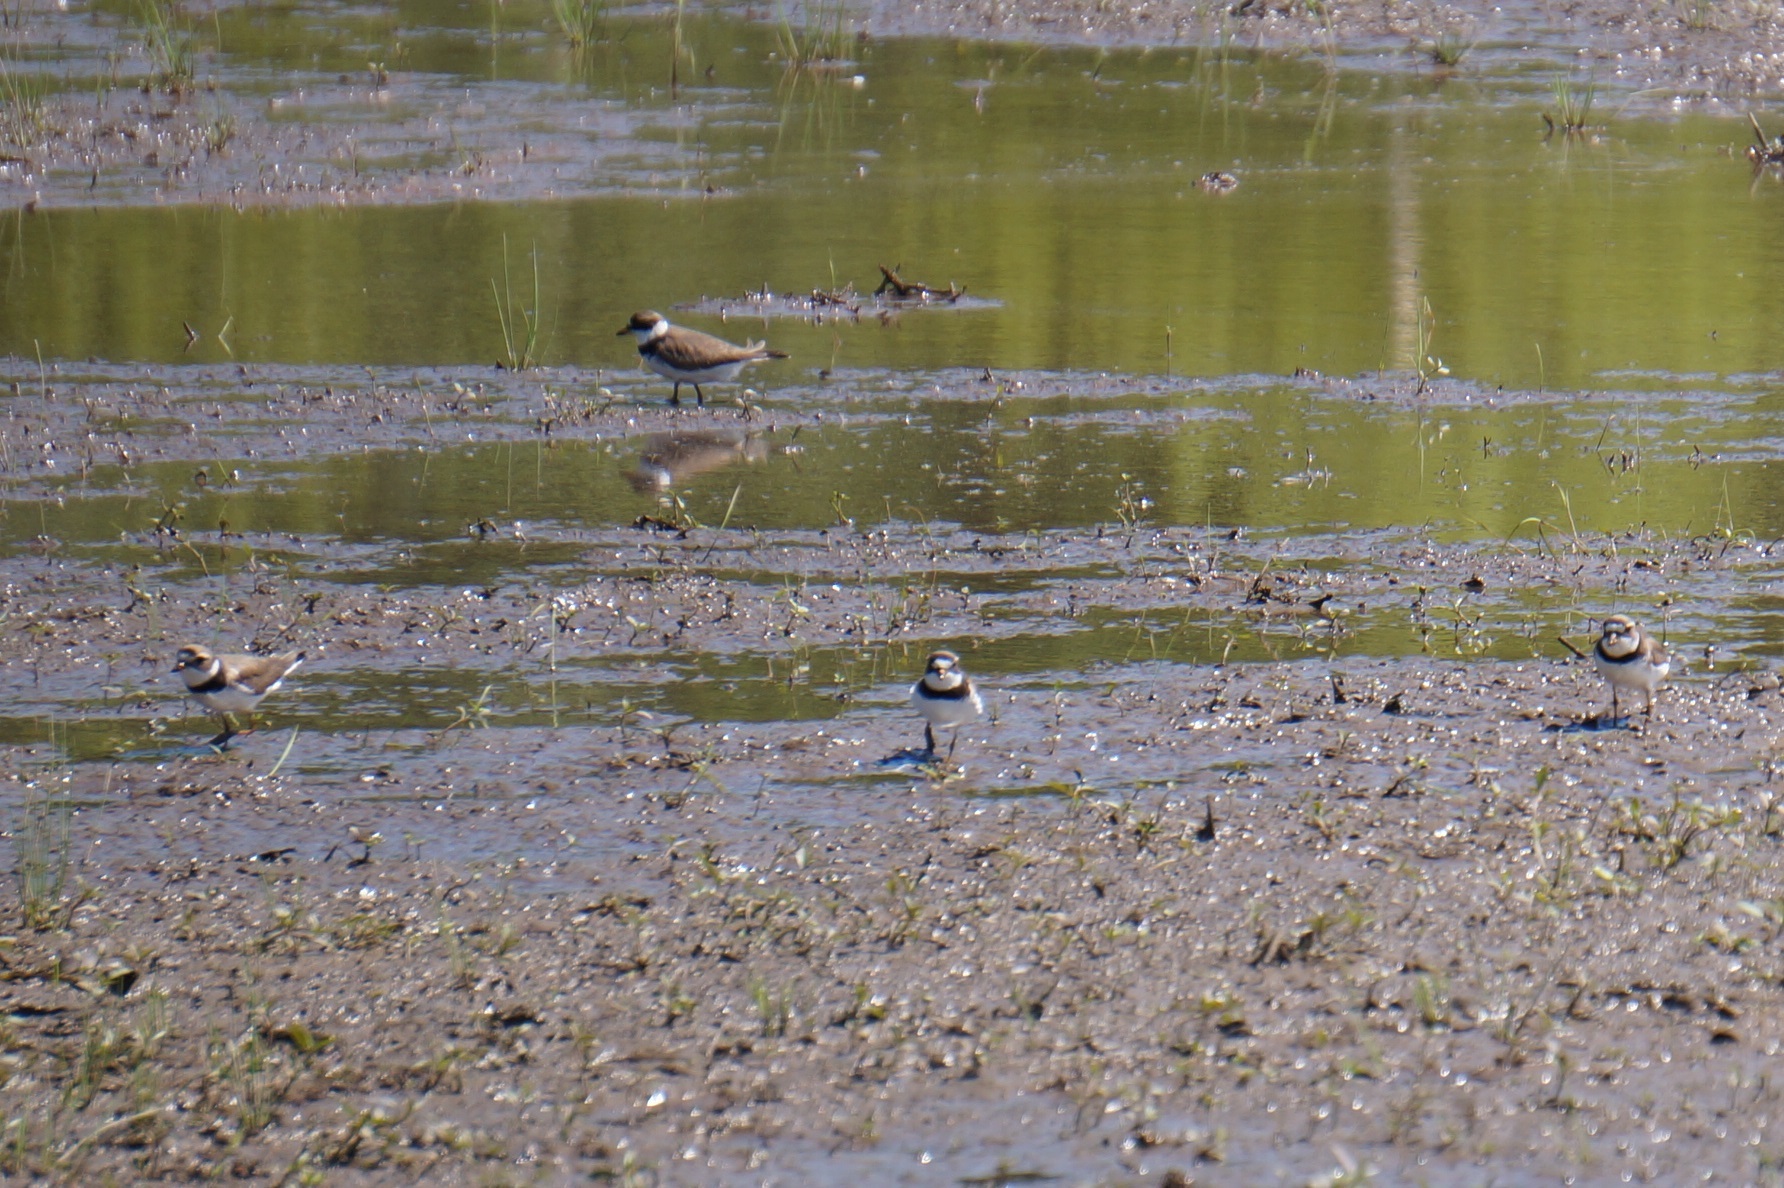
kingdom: Animalia
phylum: Chordata
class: Aves
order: Charadriiformes
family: Charadriidae
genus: Charadrius
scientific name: Charadrius semipalmatus
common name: Semipalmated plover
